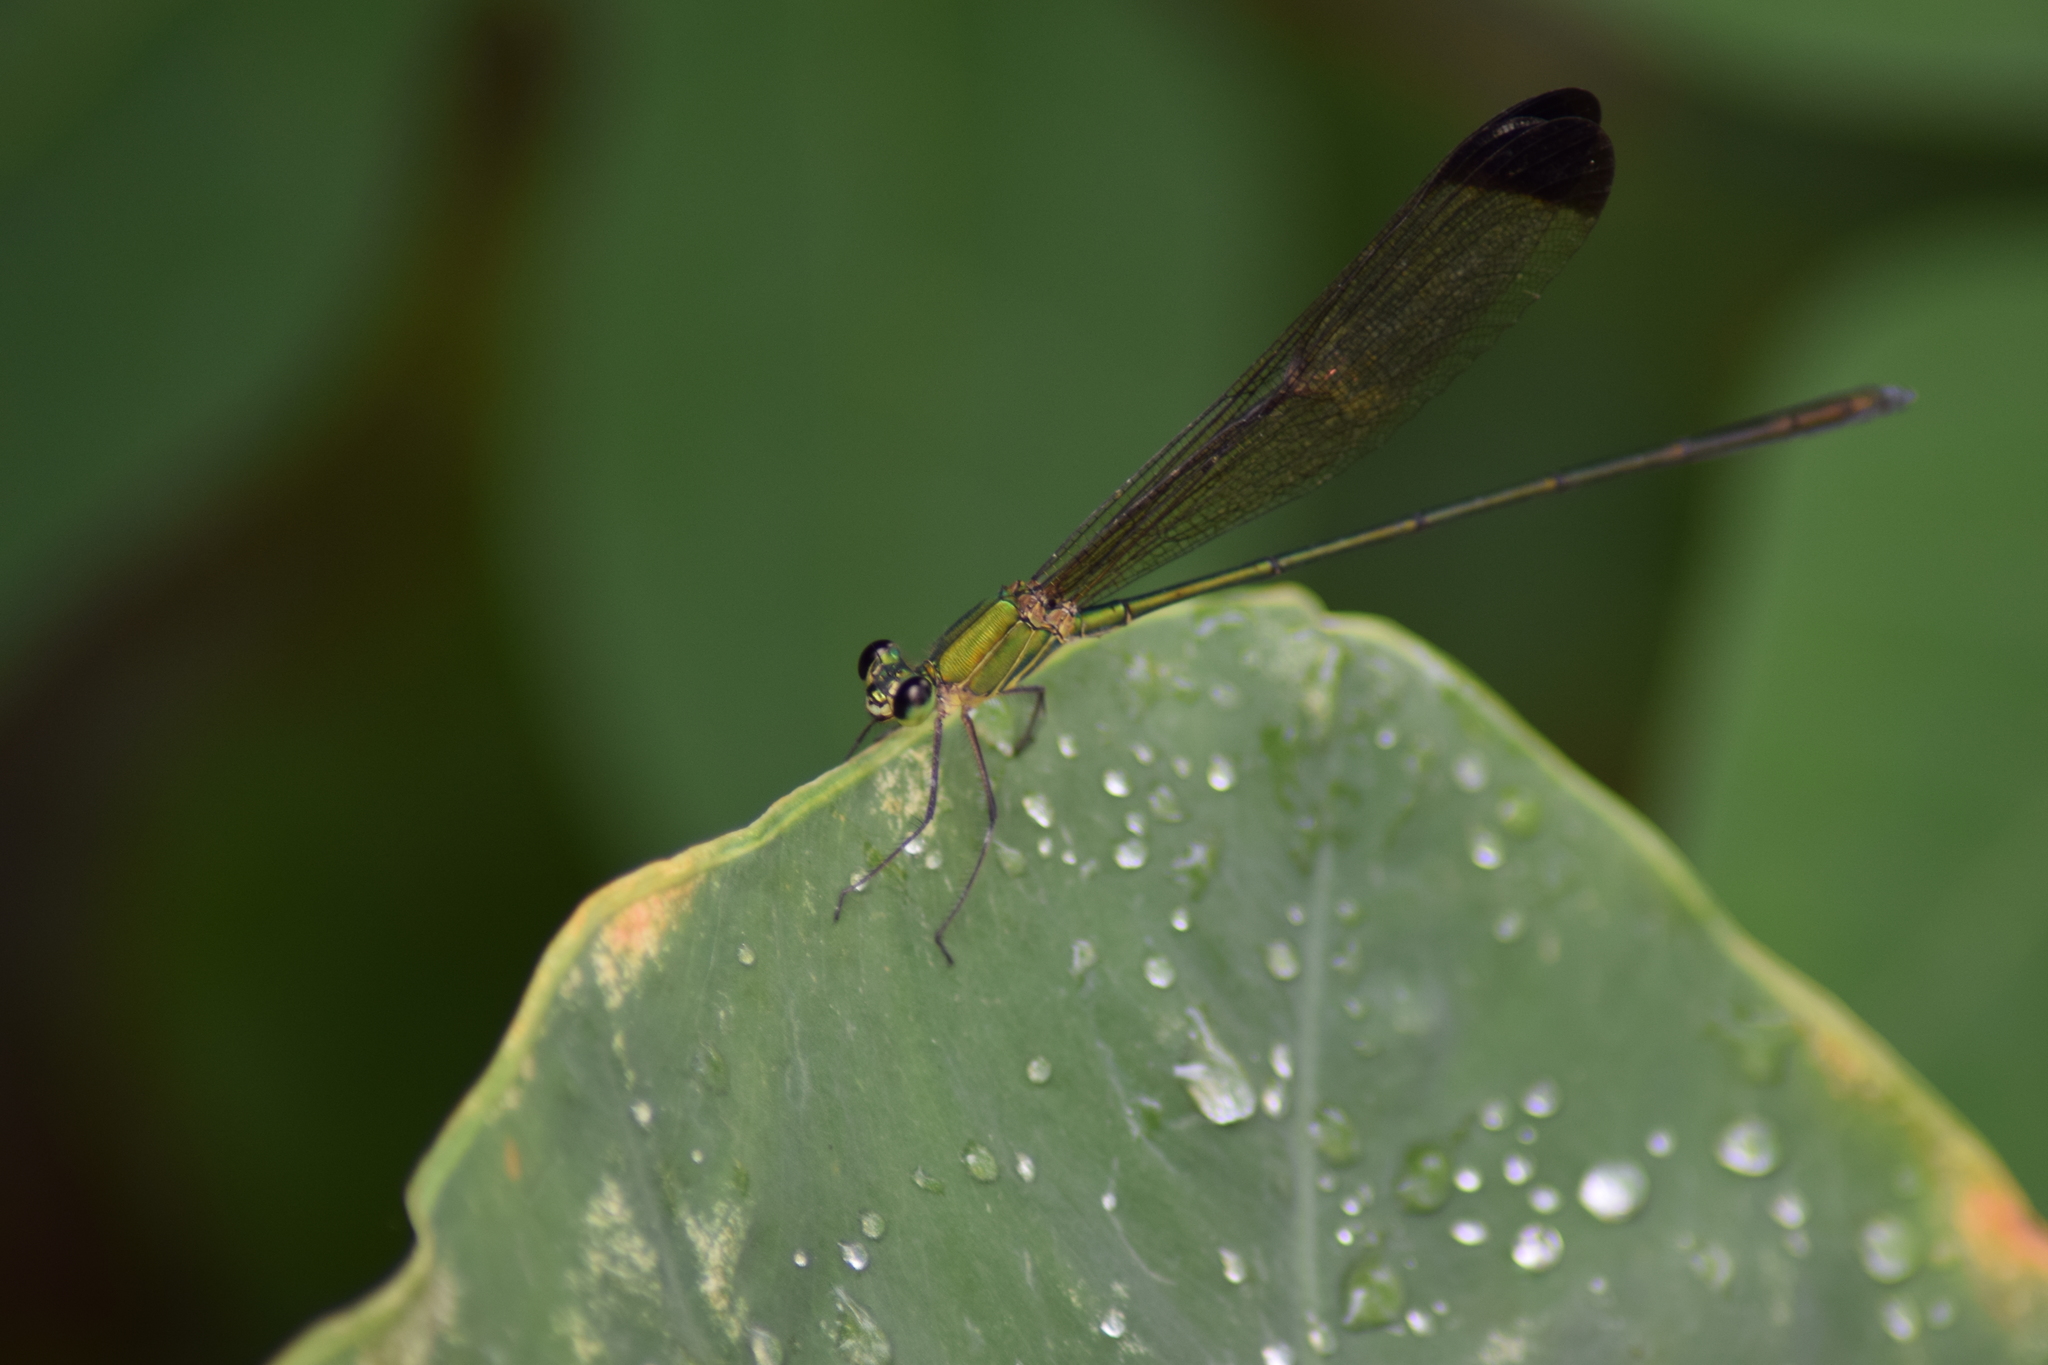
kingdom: Animalia
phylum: Arthropoda
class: Insecta
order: Odonata
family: Calopterygidae
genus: Vestalis
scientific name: Vestalis apicalis
